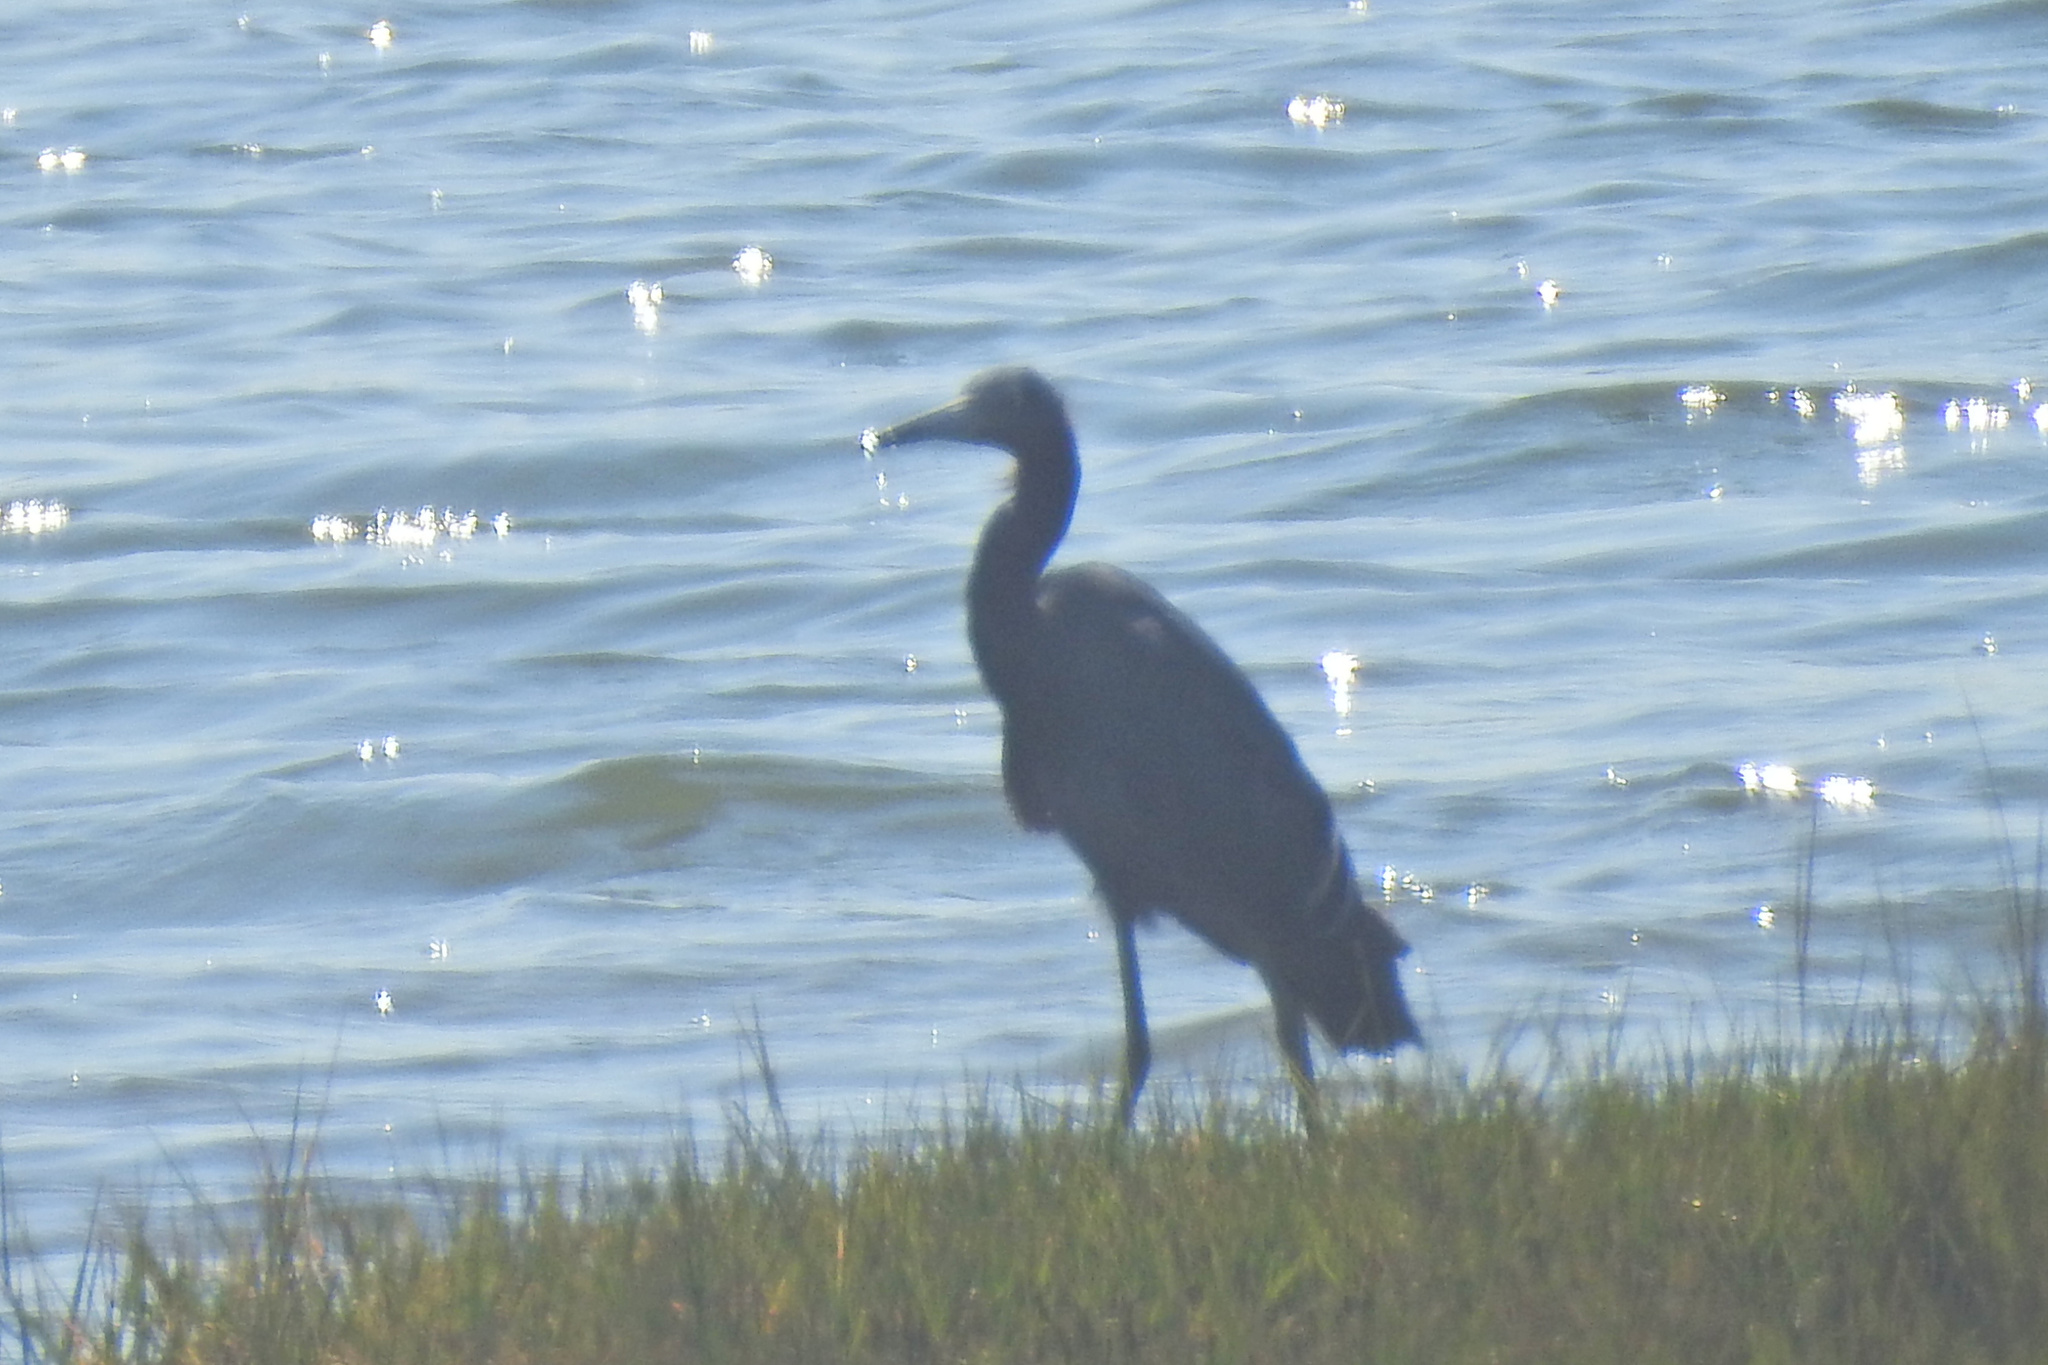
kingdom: Animalia
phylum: Chordata
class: Aves
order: Pelecaniformes
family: Ardeidae
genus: Egretta
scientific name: Egretta caerulea
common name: Little blue heron
